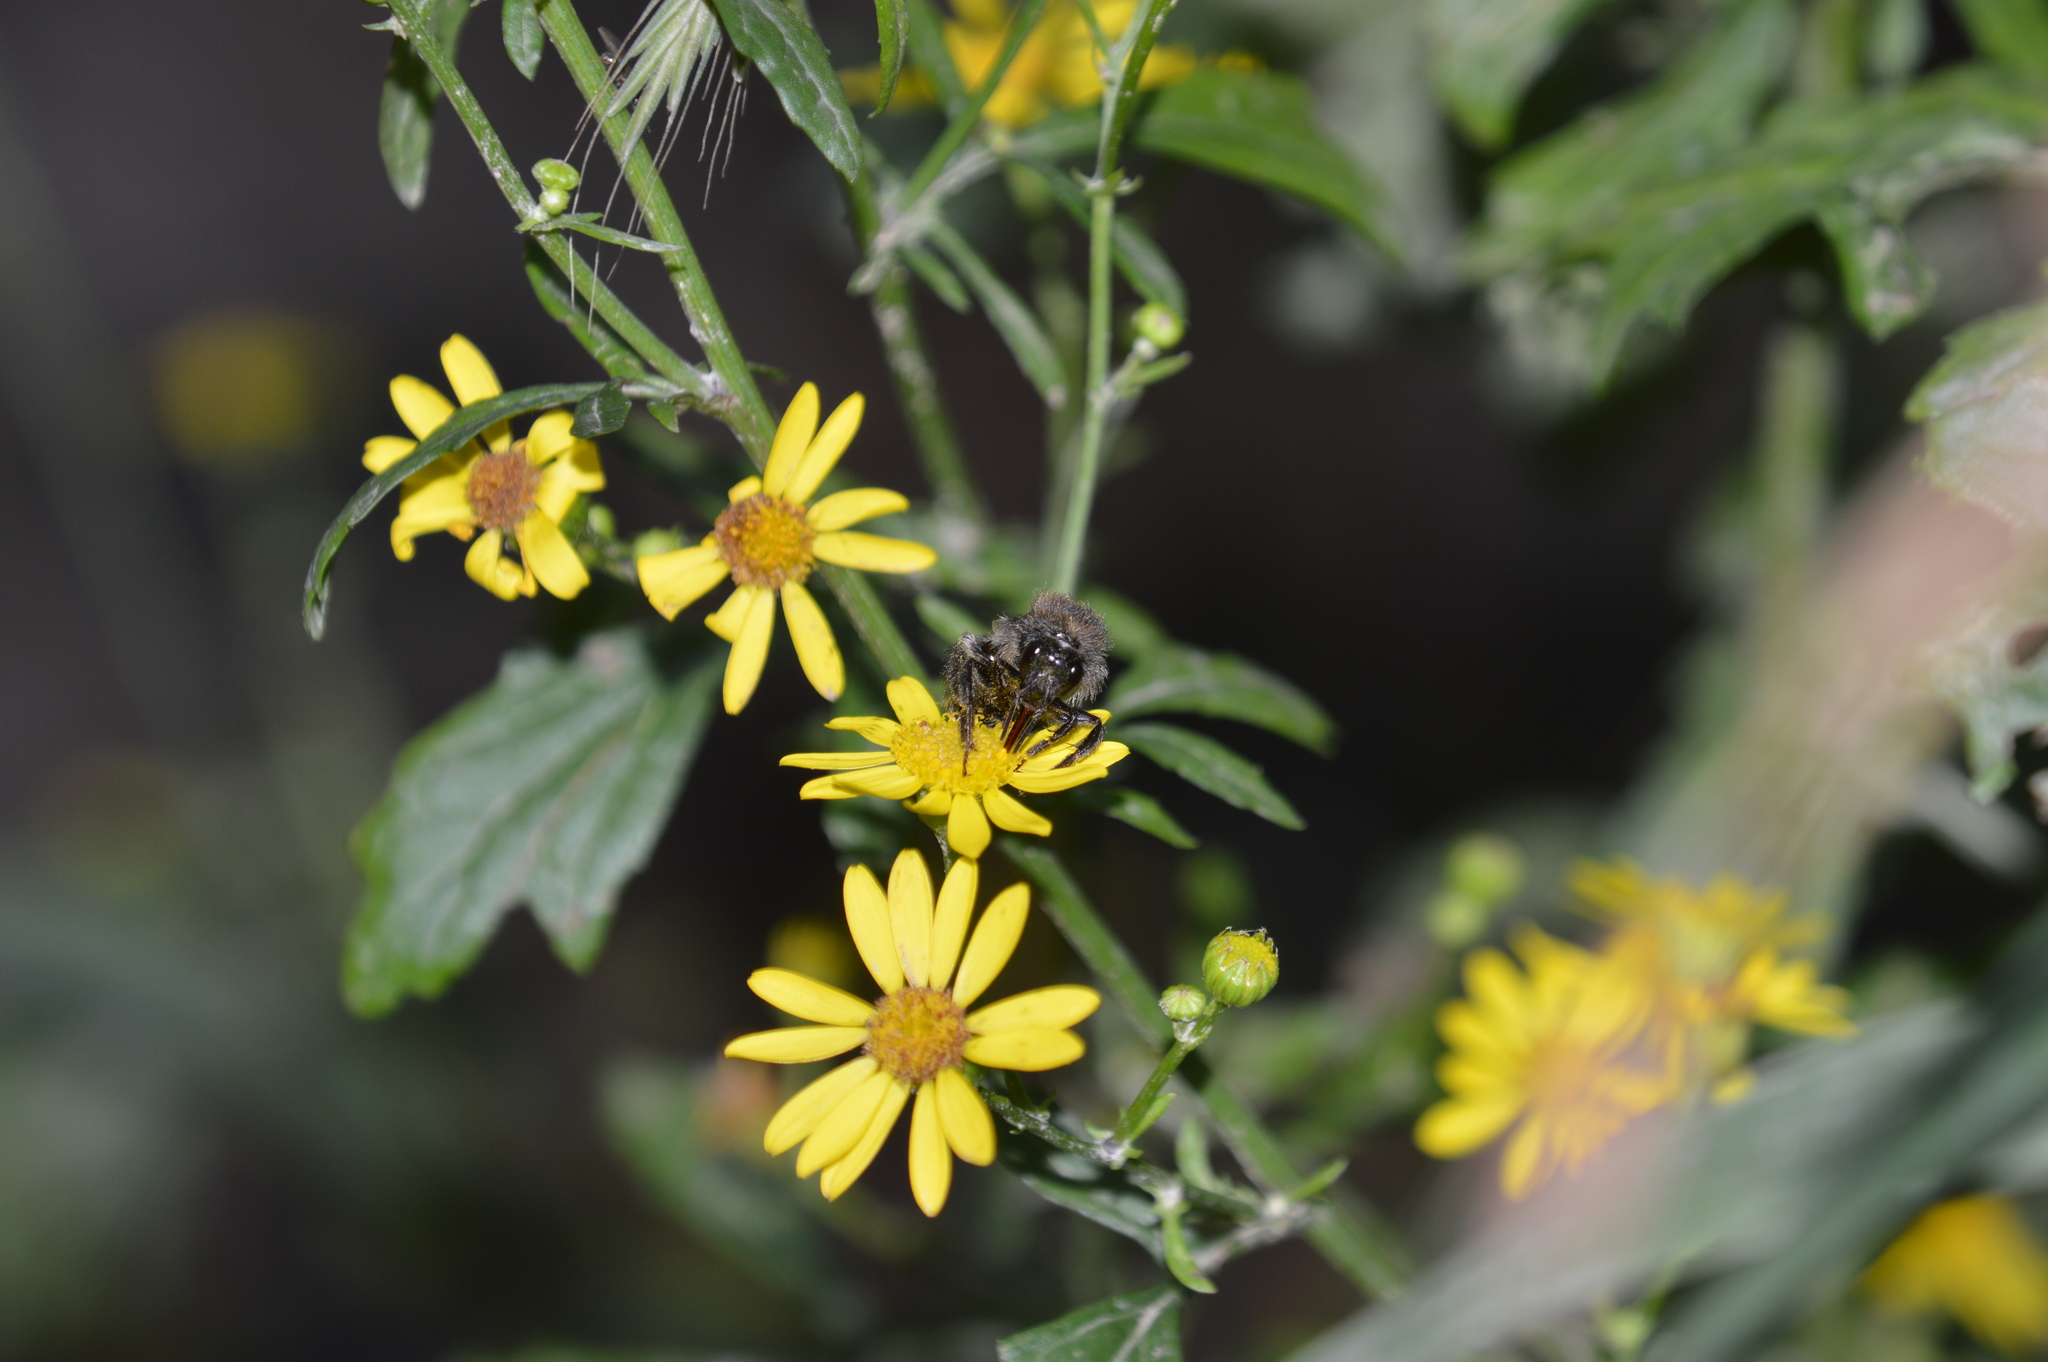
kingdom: Animalia
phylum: Arthropoda
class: Insecta
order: Hymenoptera
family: Apidae
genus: Bombus
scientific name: Bombus pascuorum
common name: Common carder bee
